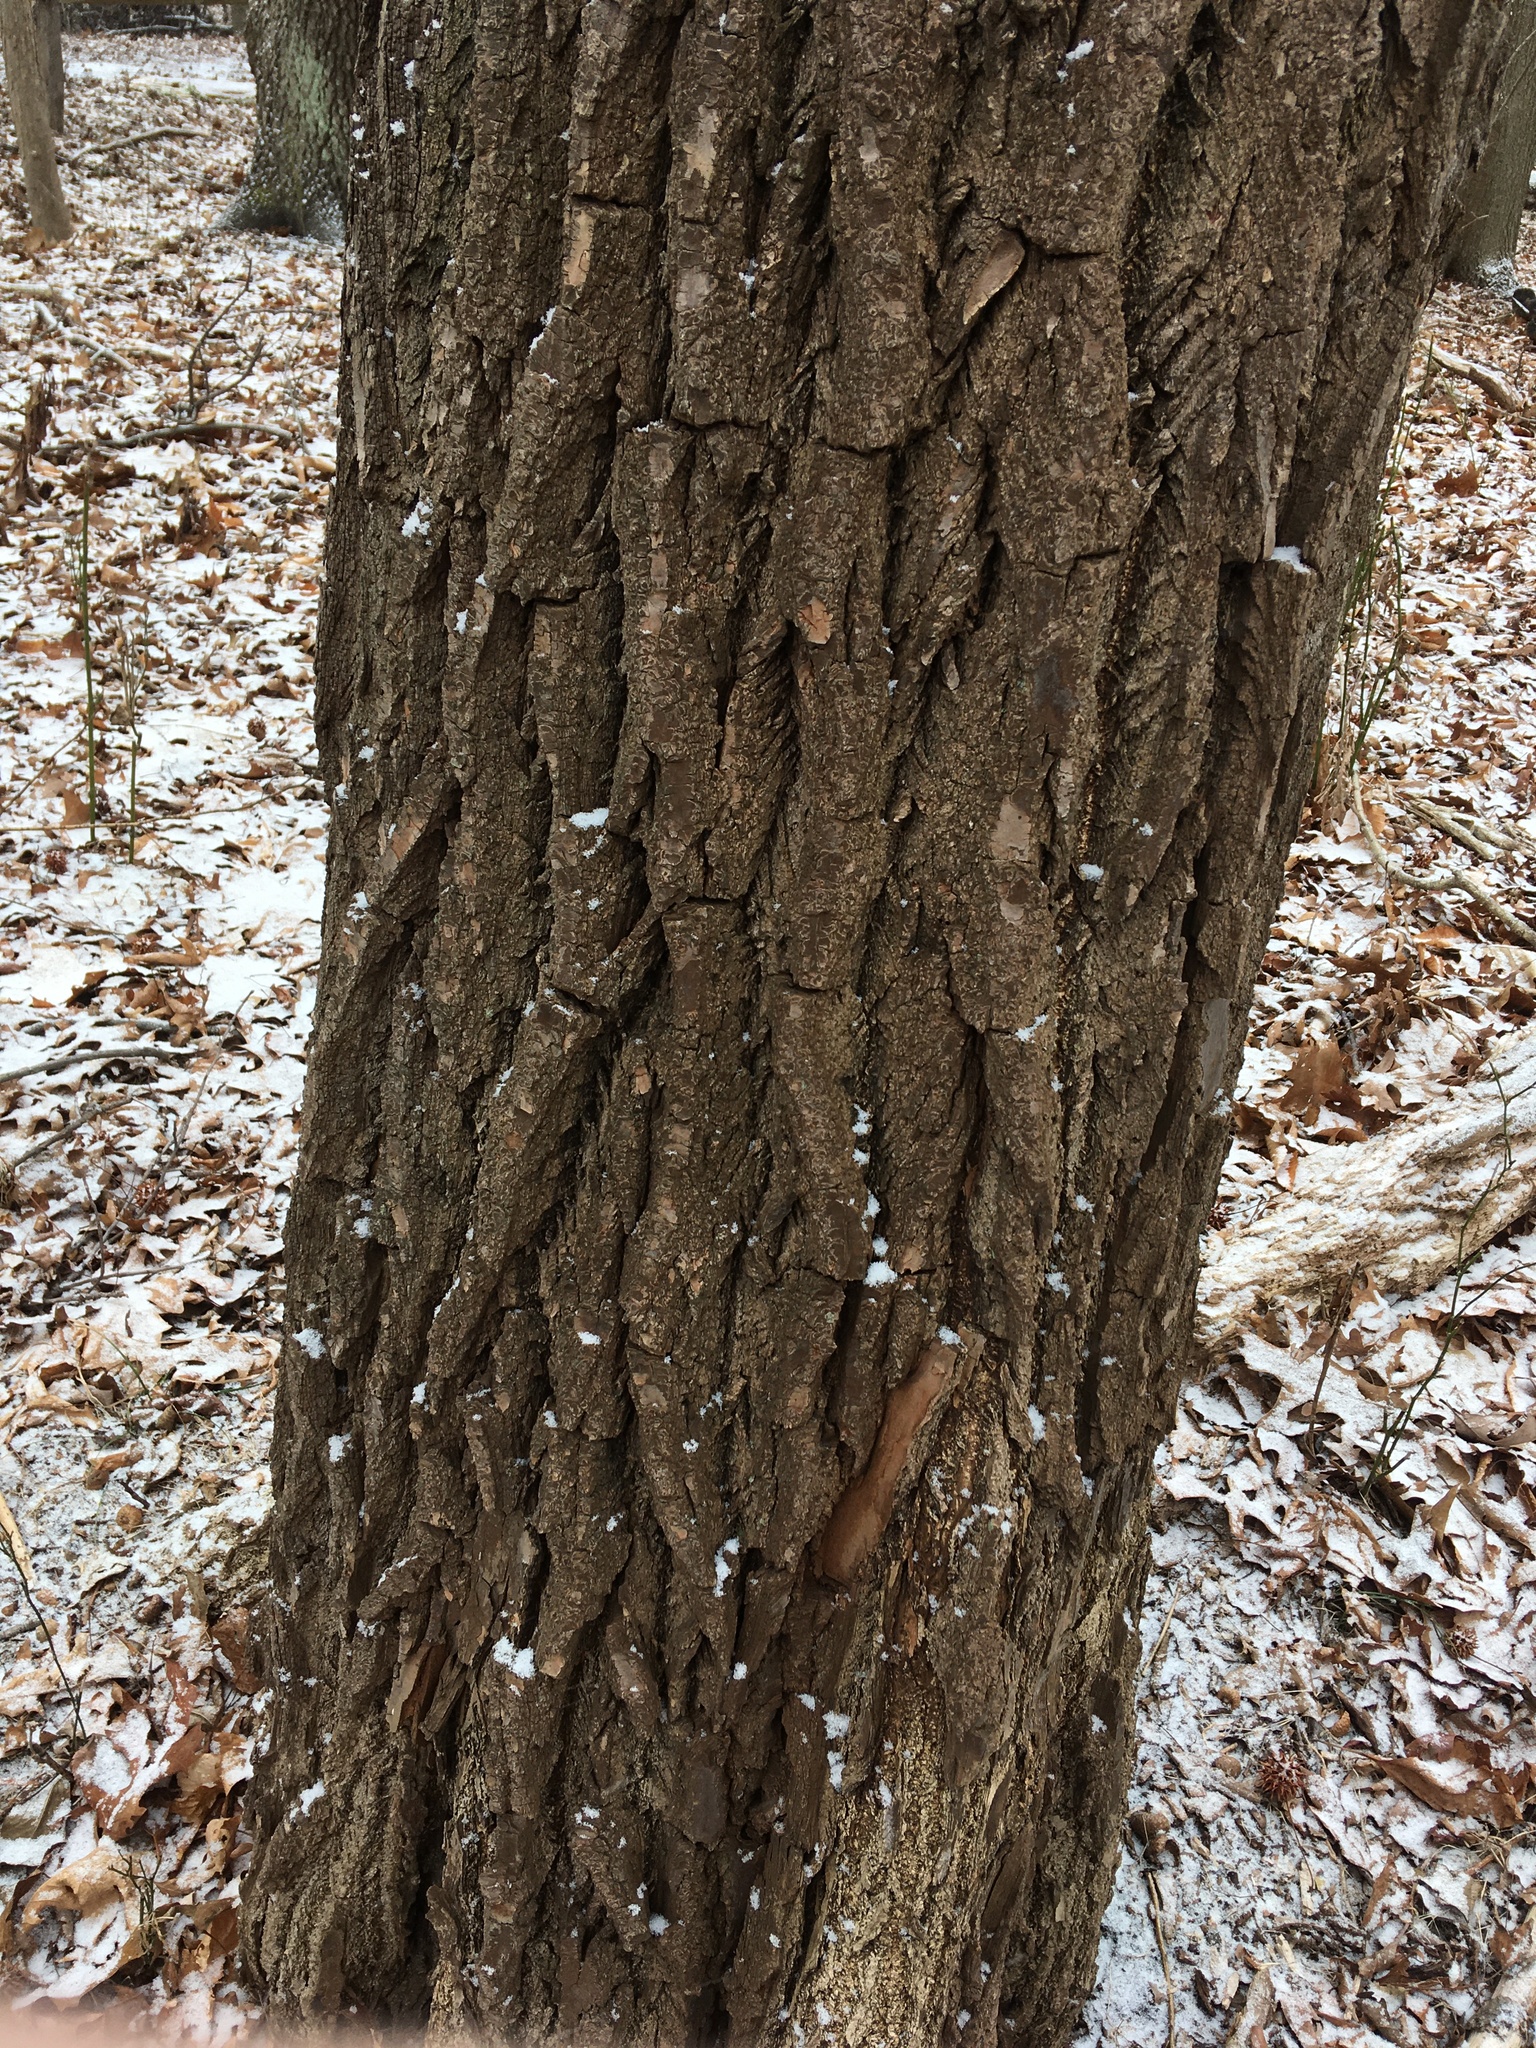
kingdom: Plantae
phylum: Tracheophyta
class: Magnoliopsida
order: Laurales
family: Lauraceae
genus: Sassafras
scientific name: Sassafras albidum
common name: Sassafras
